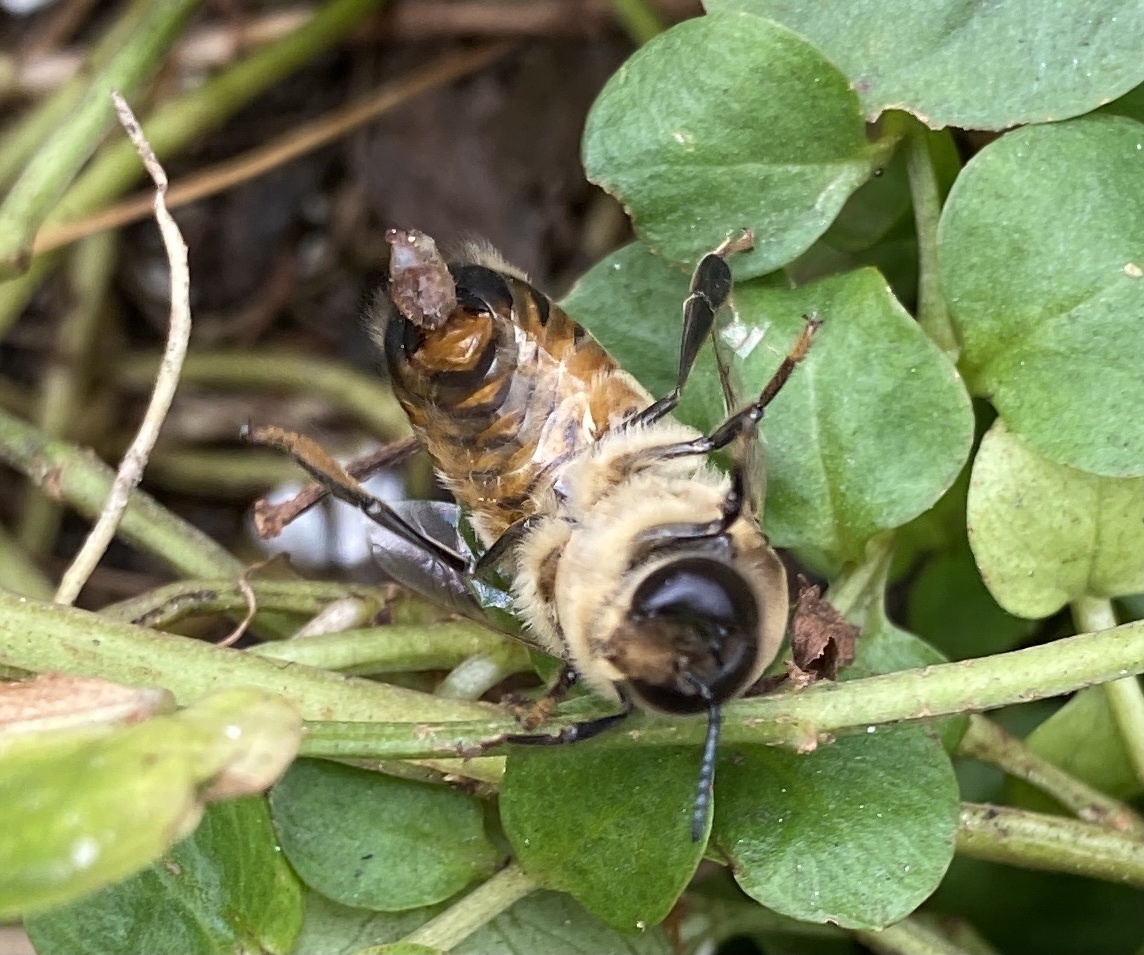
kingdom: Animalia
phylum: Arthropoda
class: Insecta
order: Hymenoptera
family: Apidae
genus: Apis
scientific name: Apis mellifera
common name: Honey bee
